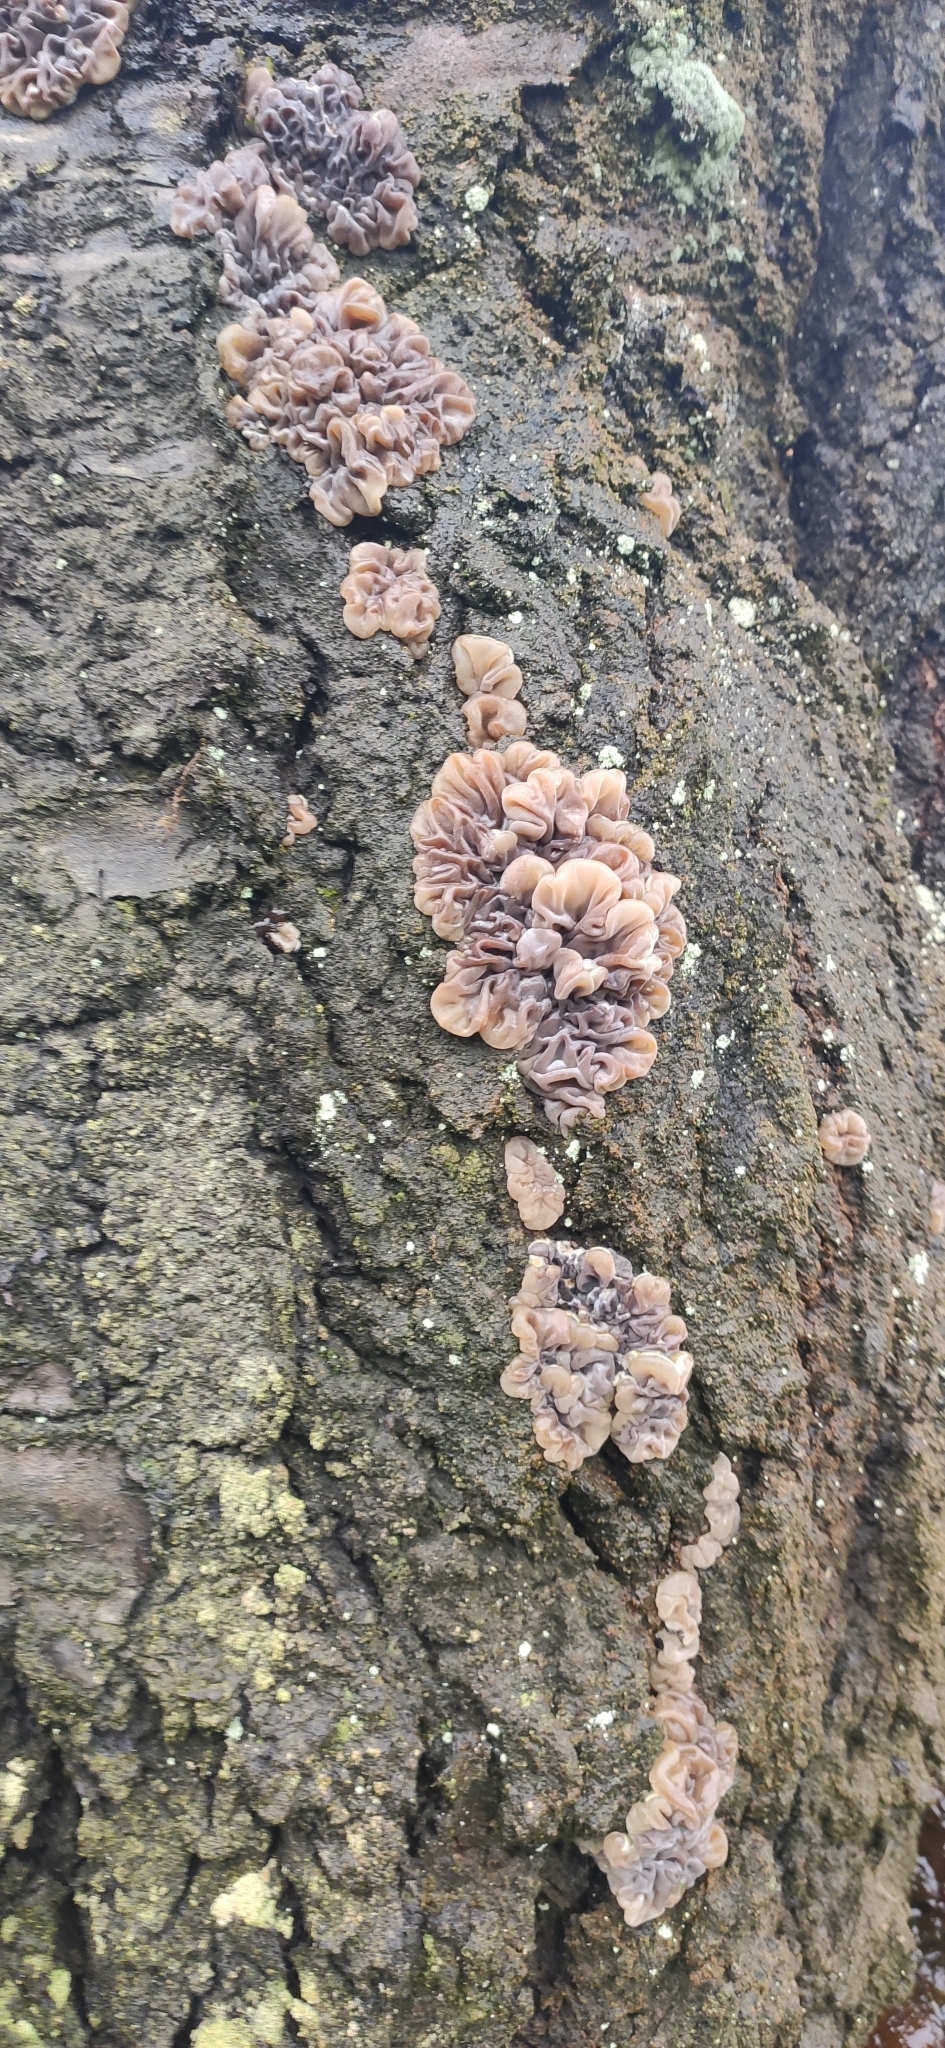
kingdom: Fungi
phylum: Basidiomycota
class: Agaricomycetes
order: Auriculariales
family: Auriculariaceae
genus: Auricularia
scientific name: Auricularia mesenterica
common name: Tripe fungus
